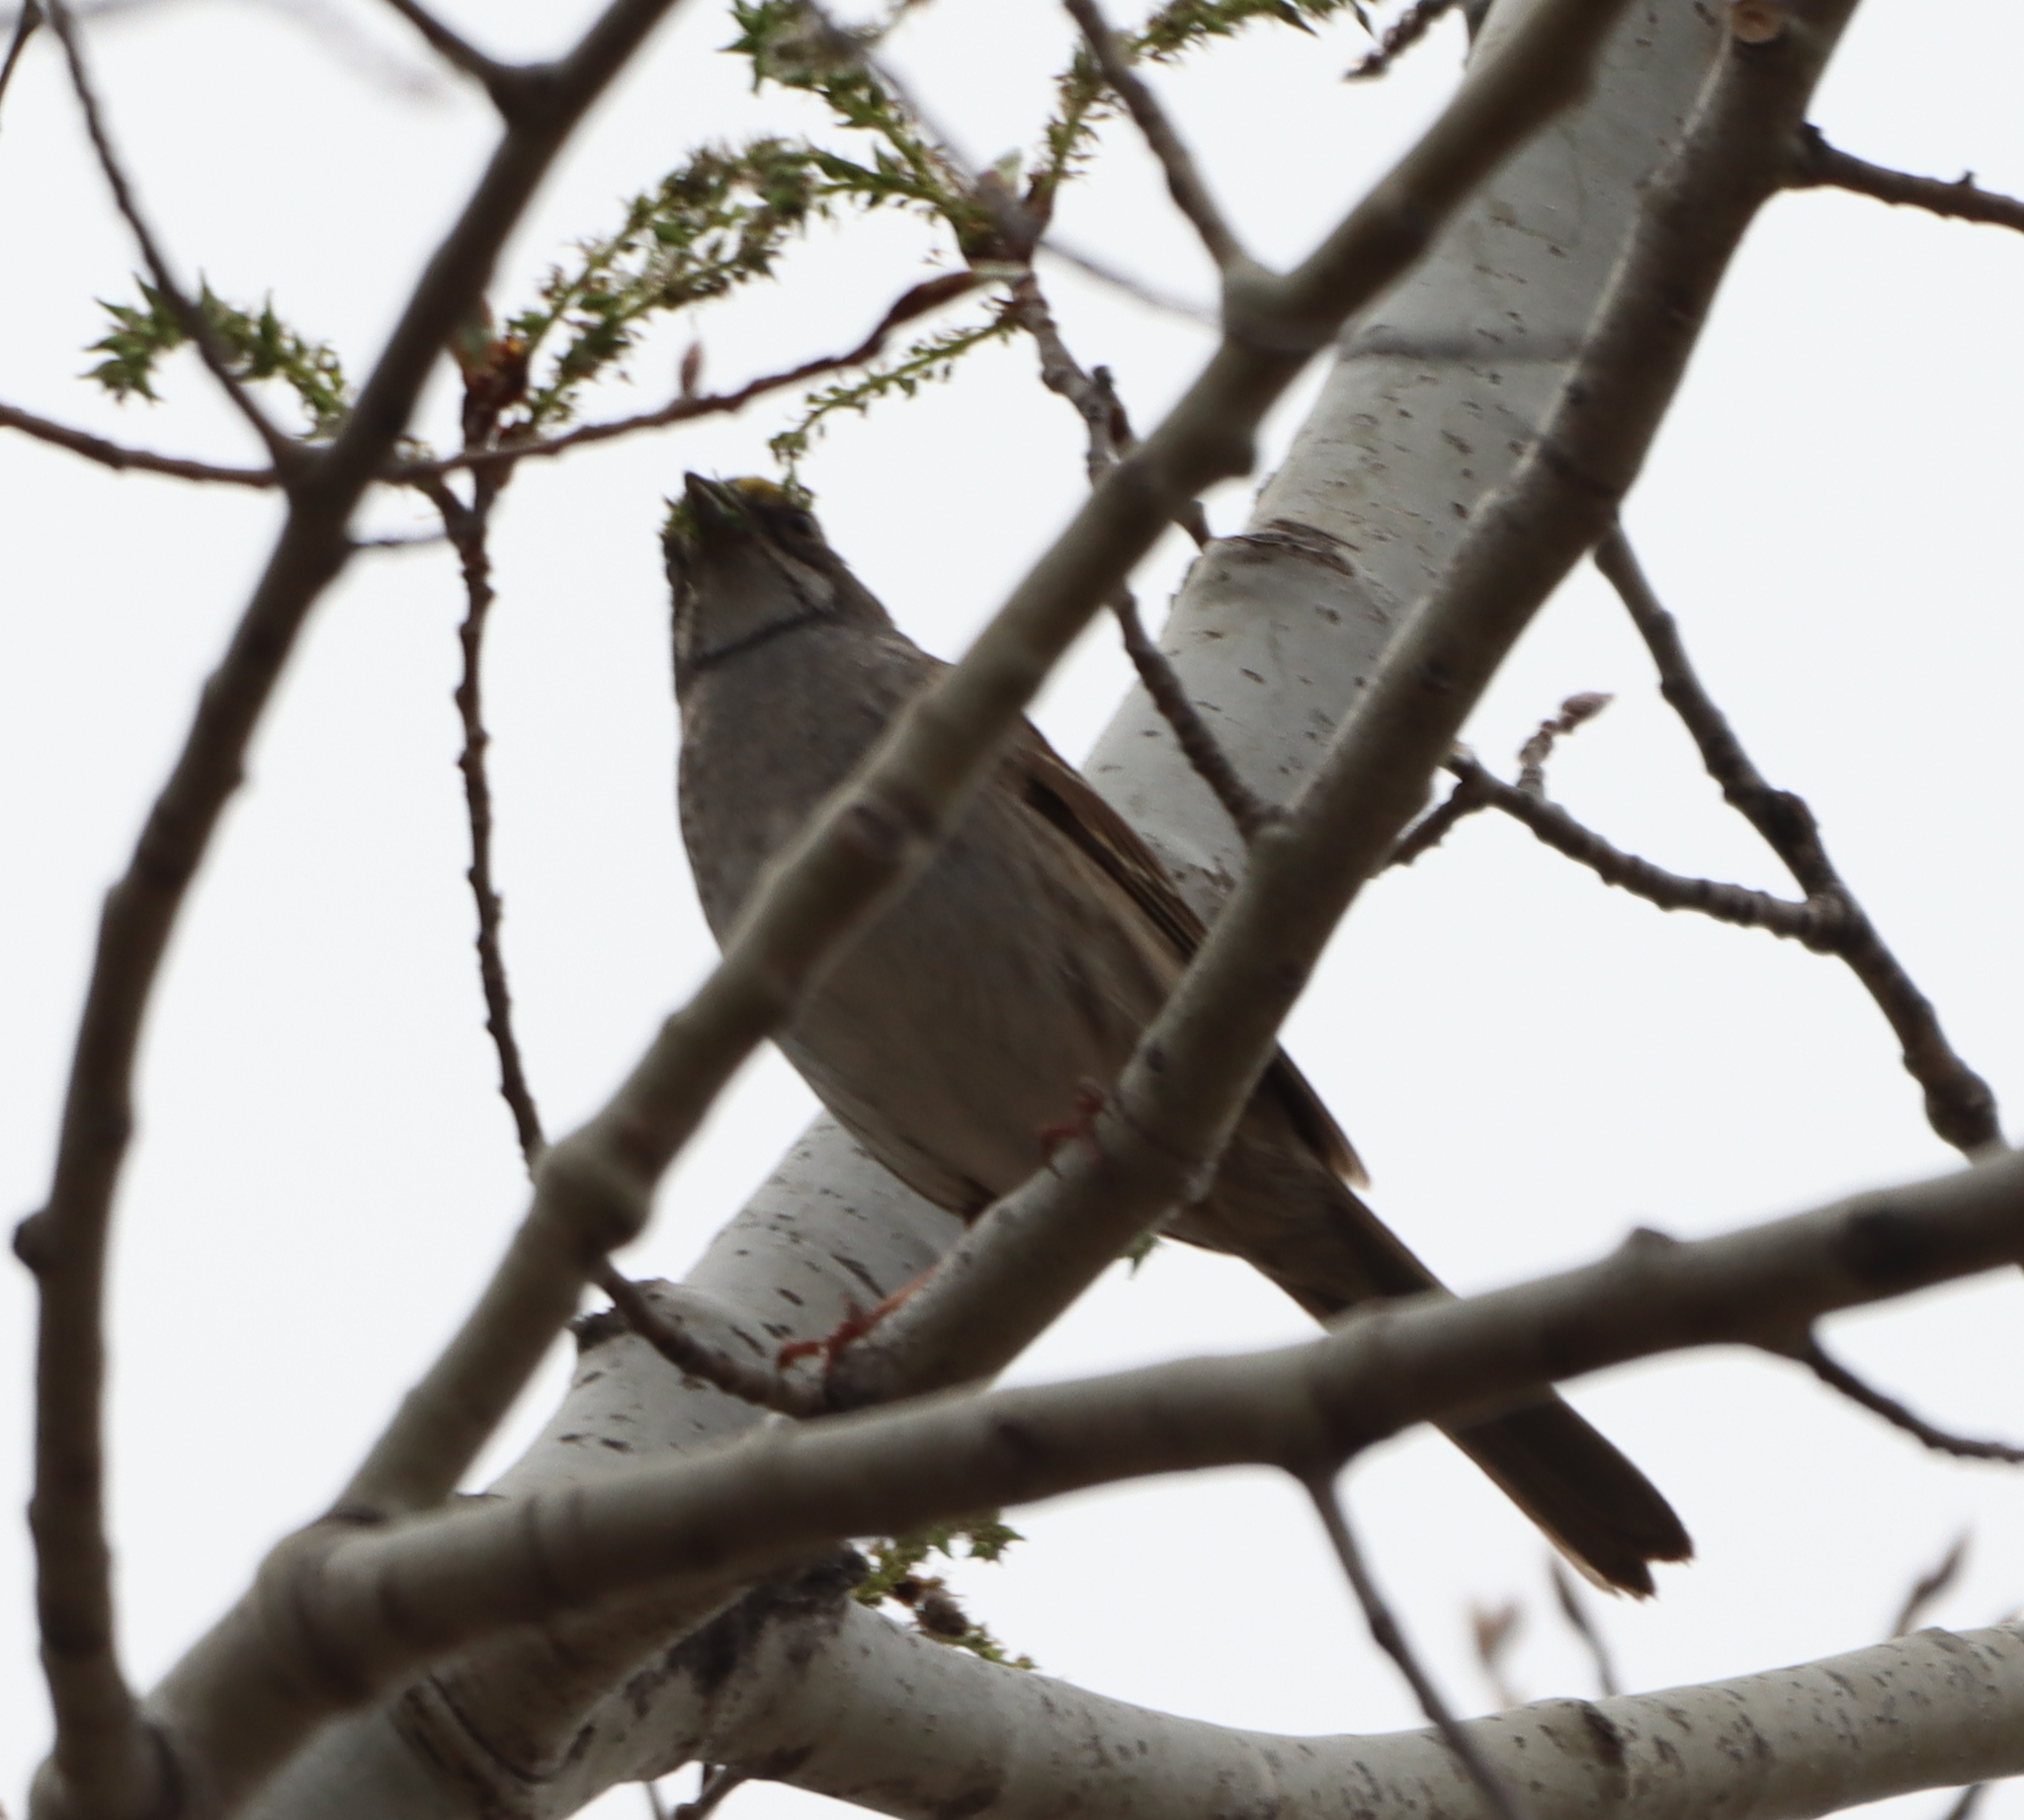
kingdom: Animalia
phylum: Chordata
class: Aves
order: Passeriformes
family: Passerellidae
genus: Zonotrichia
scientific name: Zonotrichia albicollis
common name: White-throated sparrow
